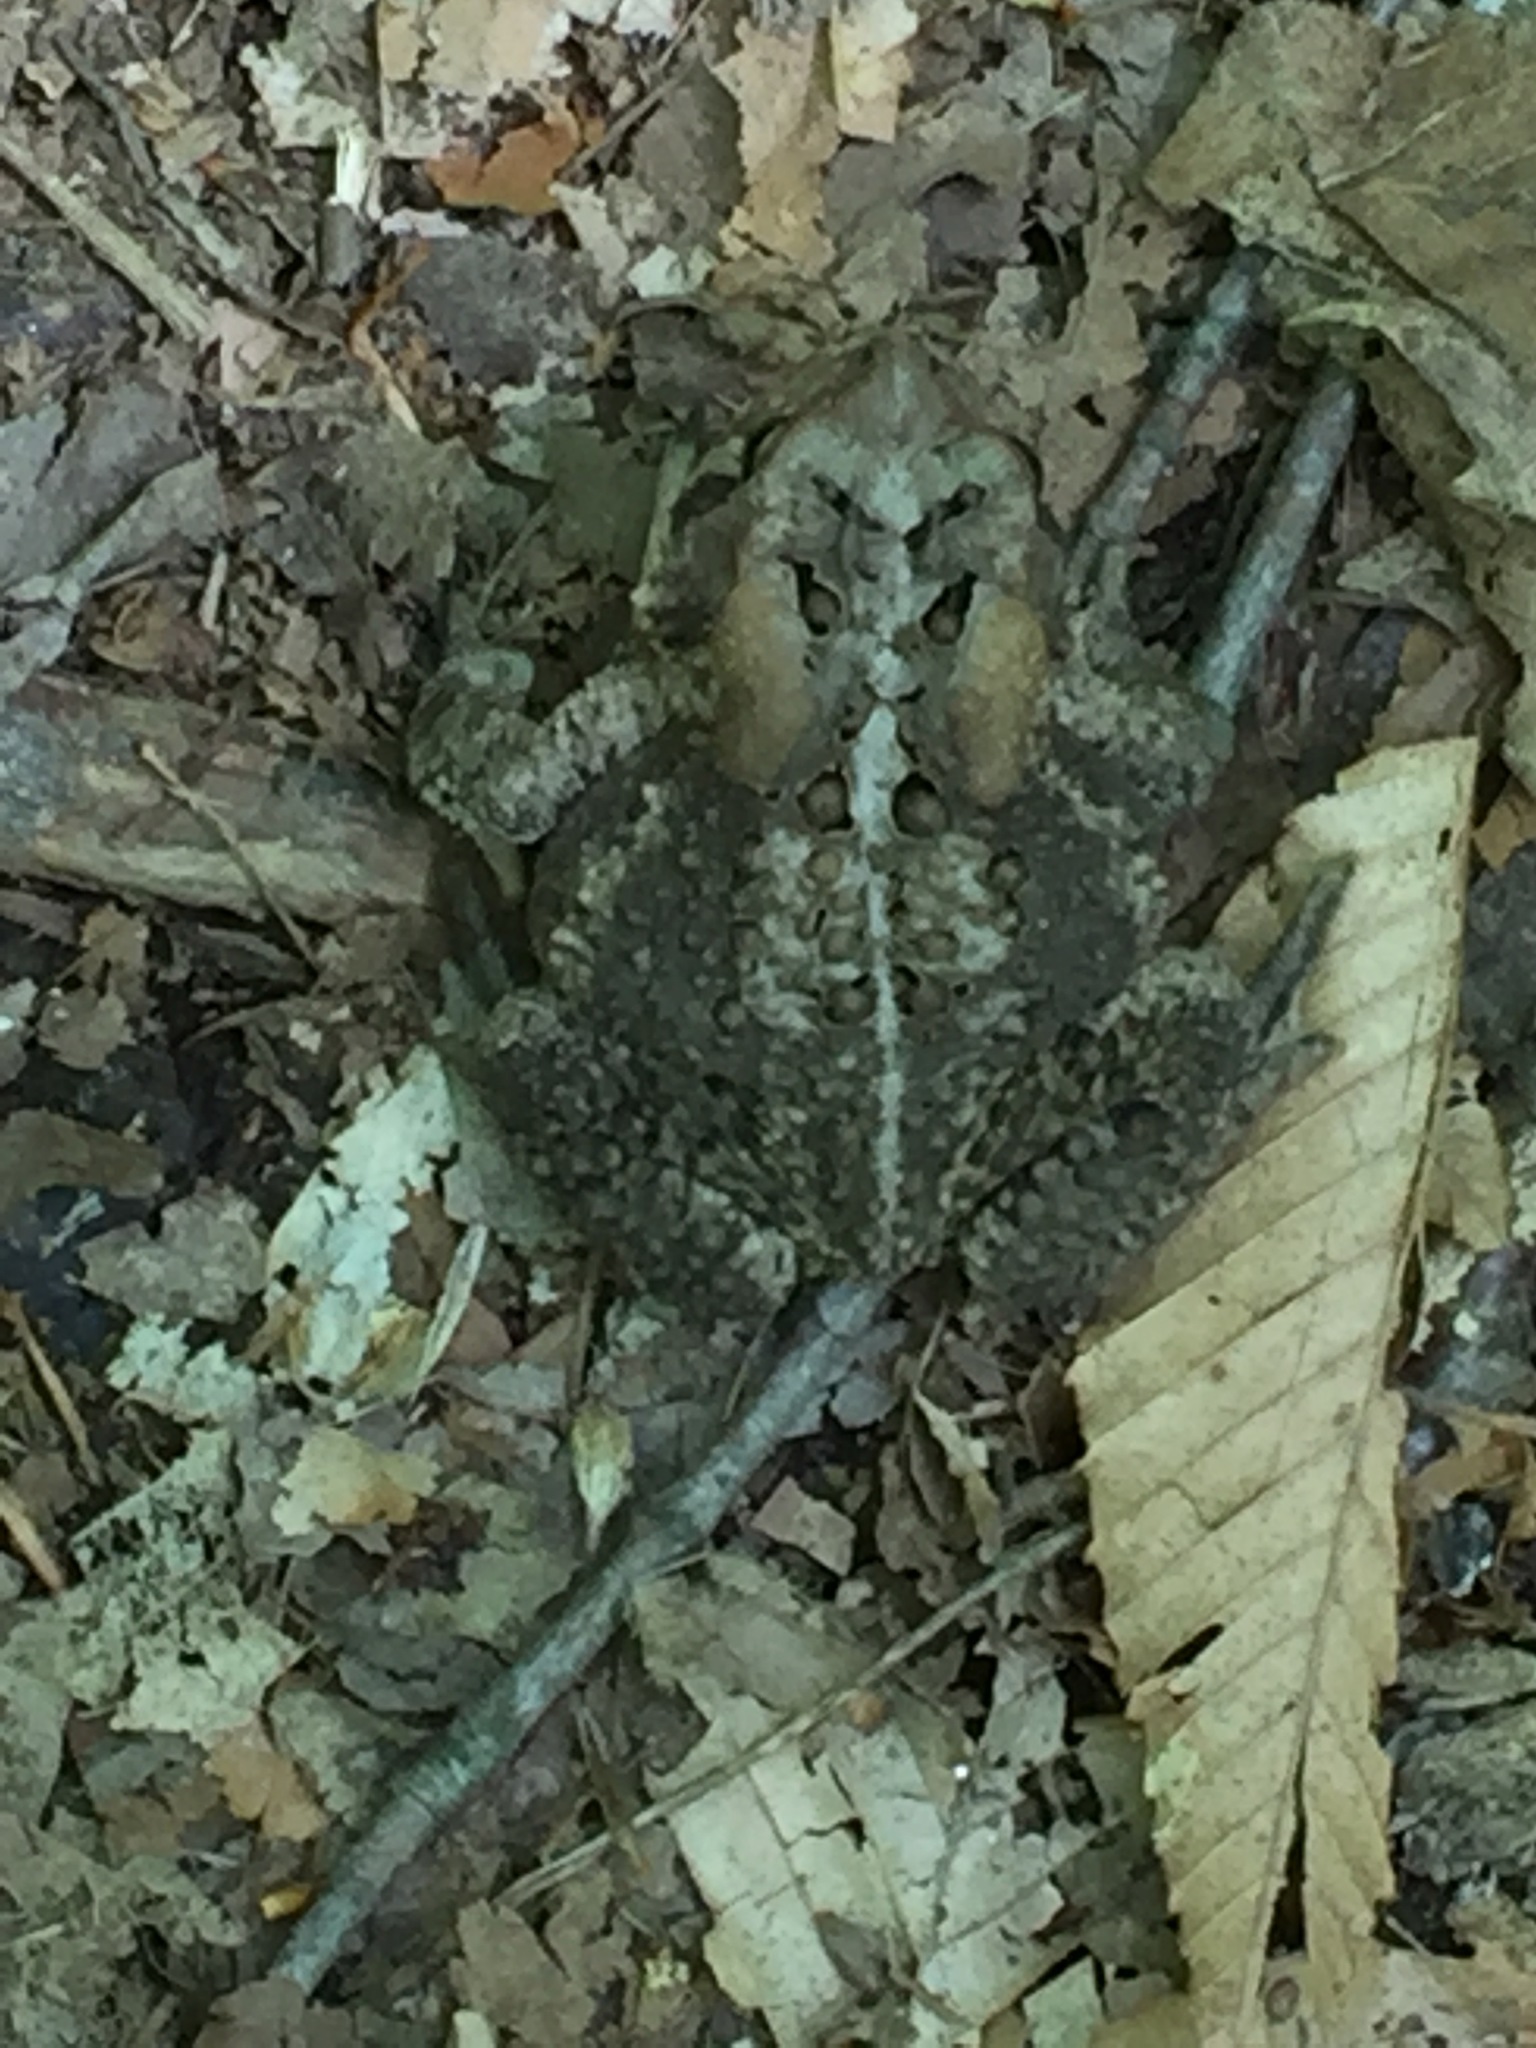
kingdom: Animalia
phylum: Chordata
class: Amphibia
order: Anura
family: Bufonidae
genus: Anaxyrus
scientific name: Anaxyrus americanus
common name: American toad
